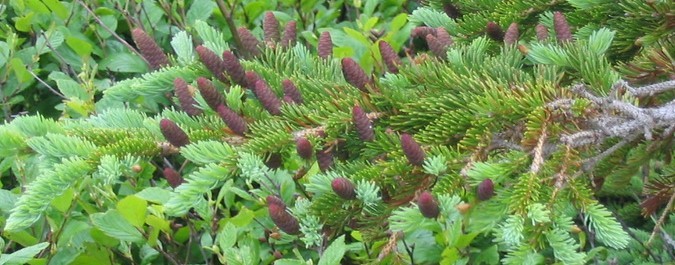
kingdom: Plantae
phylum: Tracheophyta
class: Pinopsida
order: Pinales
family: Pinaceae
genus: Picea
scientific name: Picea glauca
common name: White spruce
